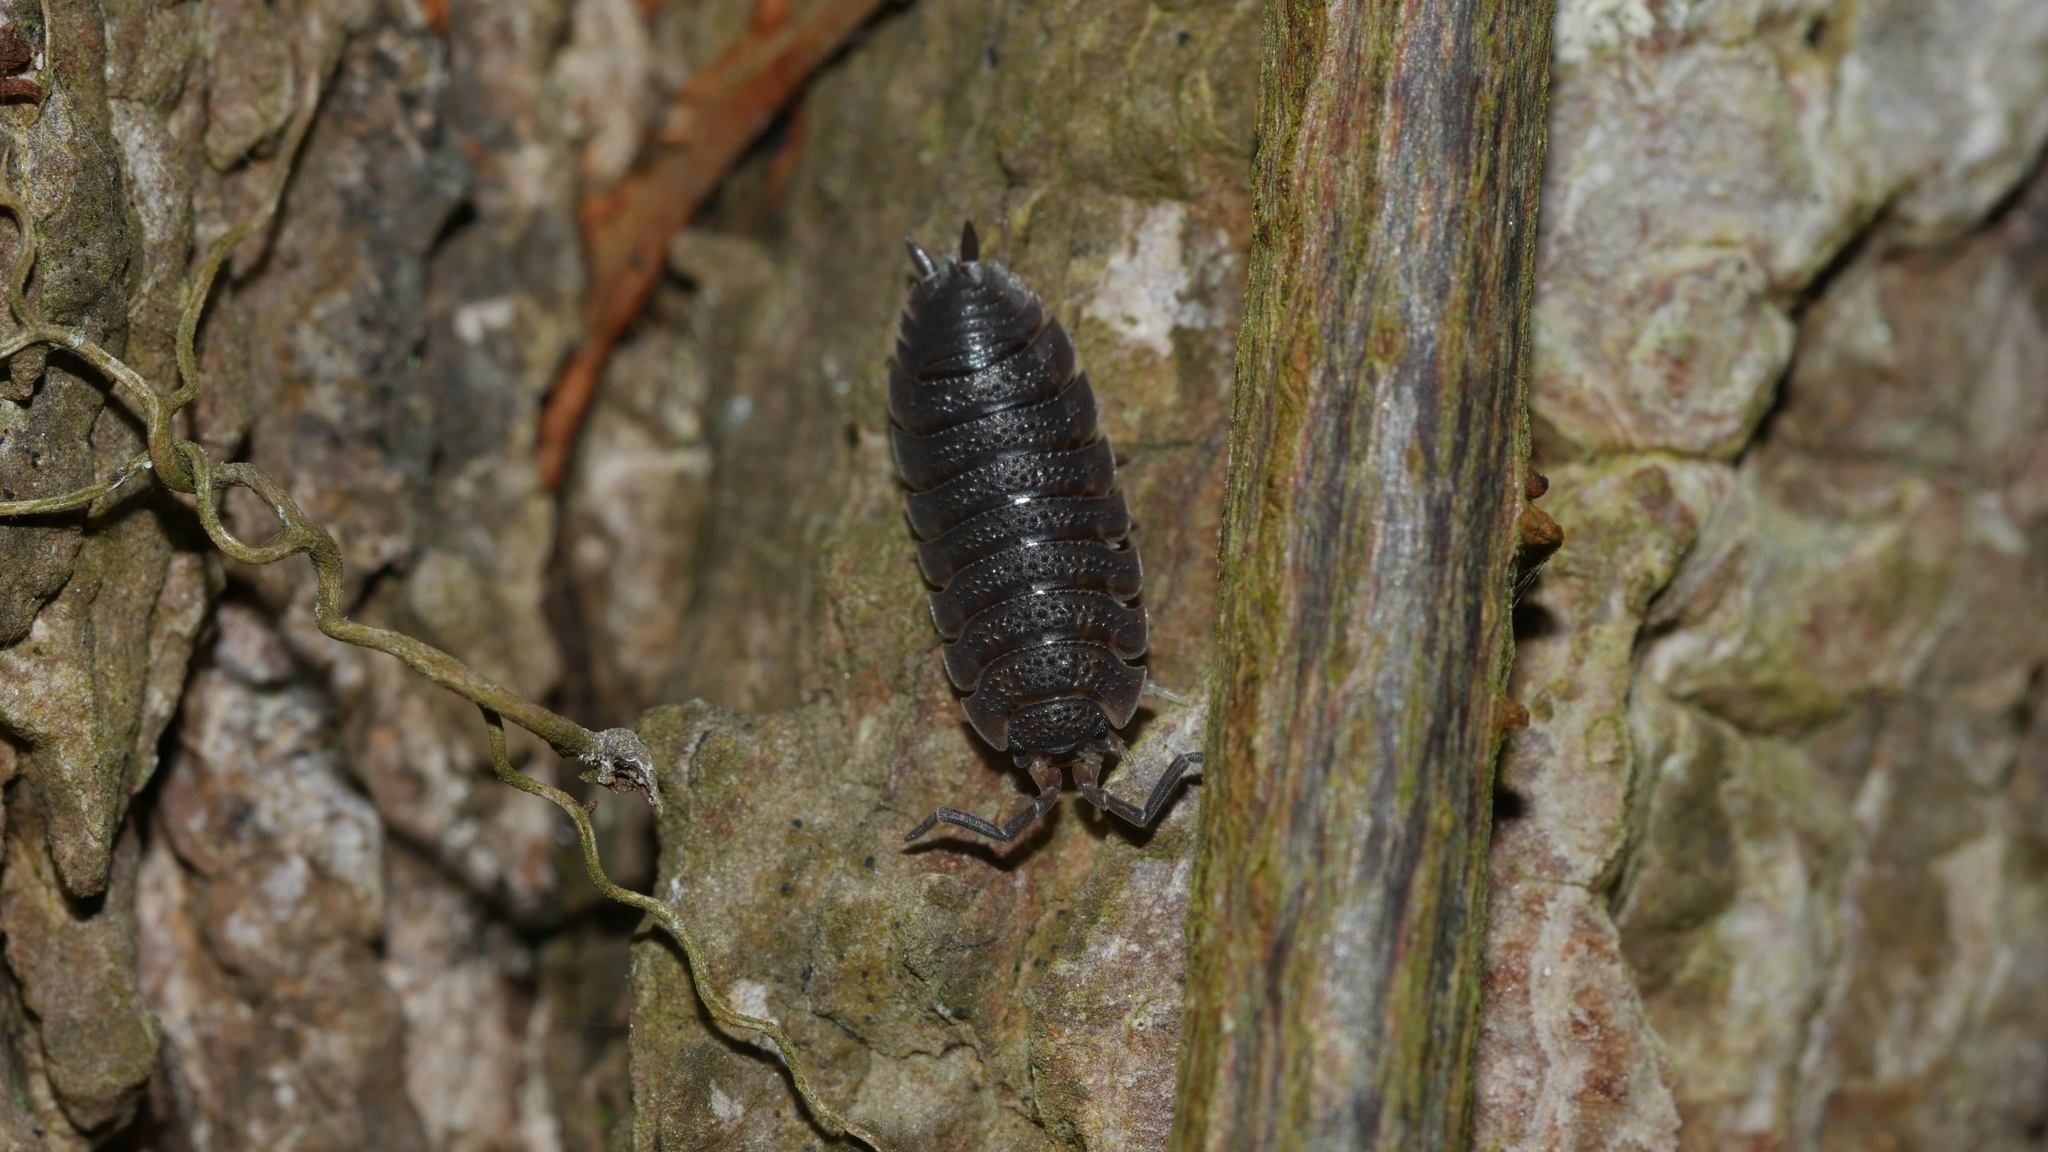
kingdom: Animalia
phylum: Arthropoda
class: Malacostraca
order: Isopoda
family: Porcellionidae
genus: Porcellio
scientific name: Porcellio scaber
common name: Common rough woodlouse
